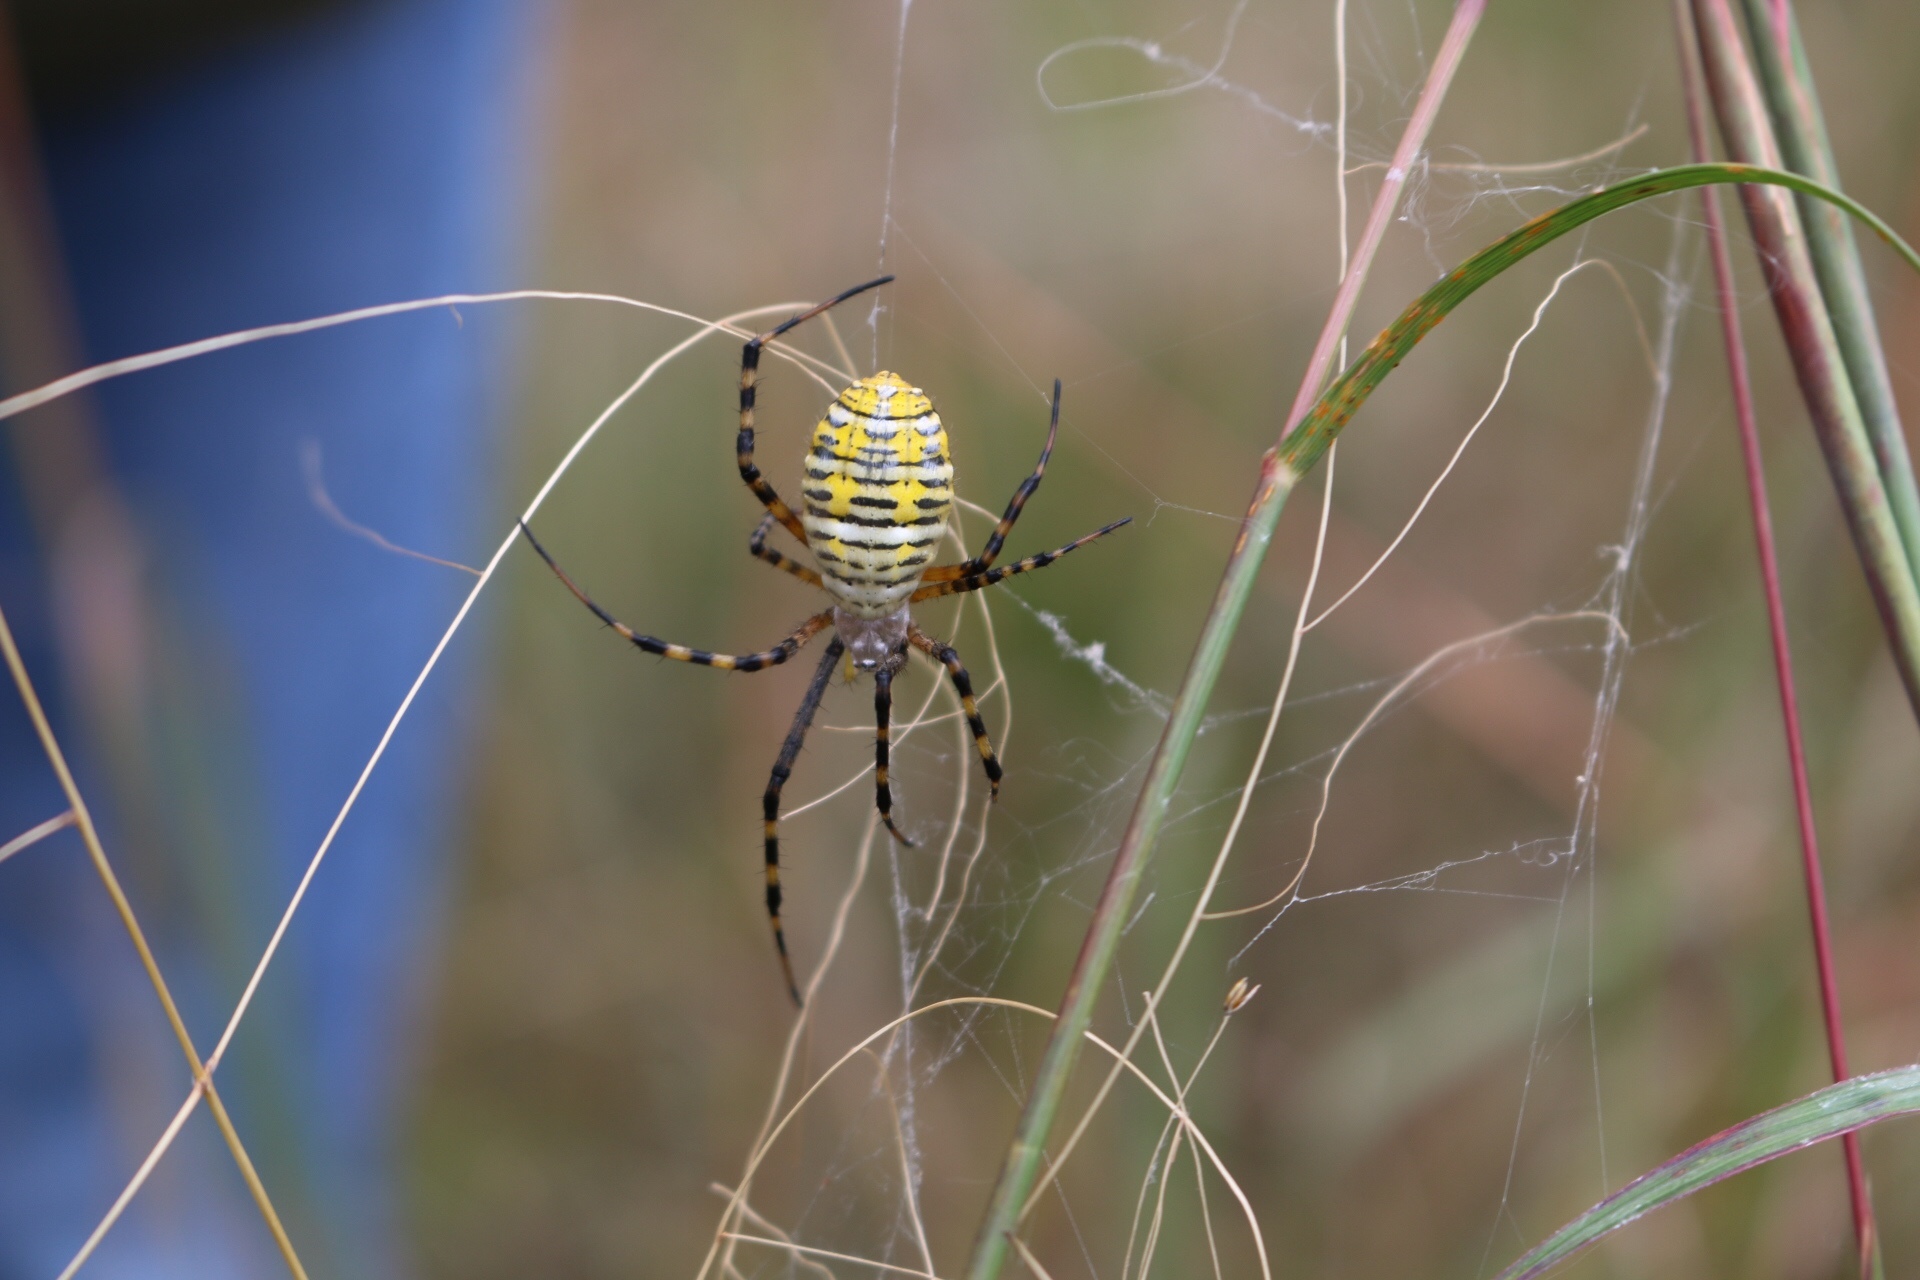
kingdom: Animalia
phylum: Arthropoda
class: Arachnida
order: Araneae
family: Araneidae
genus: Argiope
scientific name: Argiope trifasciata
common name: Banded garden spider
